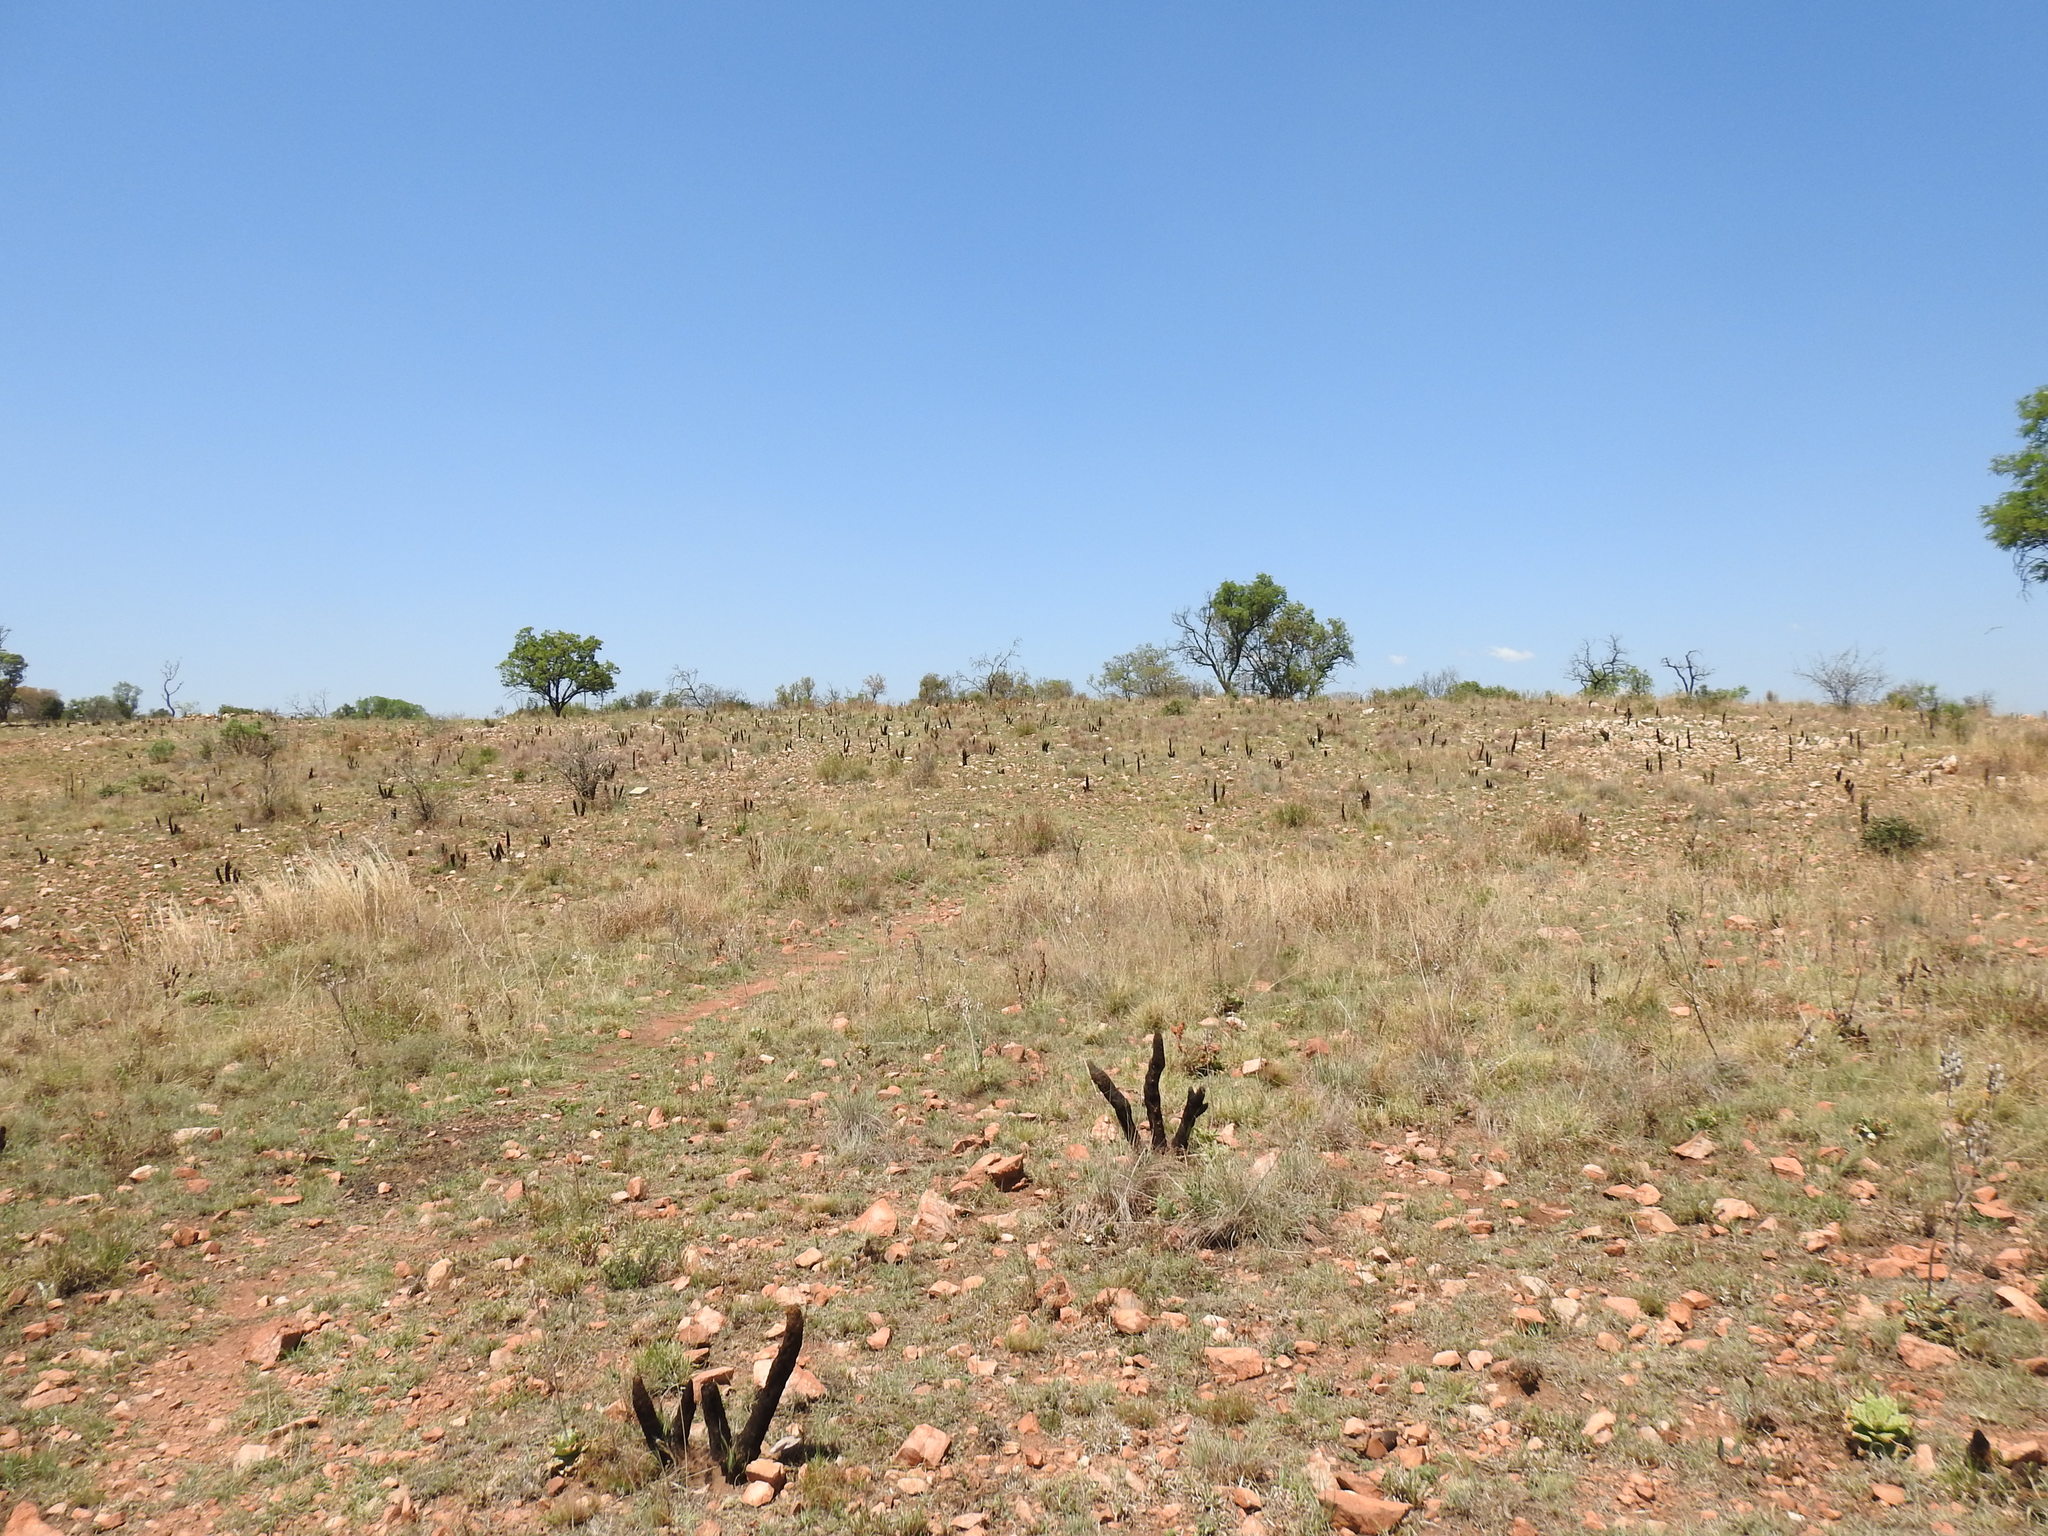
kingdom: Plantae
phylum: Tracheophyta
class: Liliopsida
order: Pandanales
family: Velloziaceae
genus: Xerophyta
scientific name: Xerophyta retinervis
